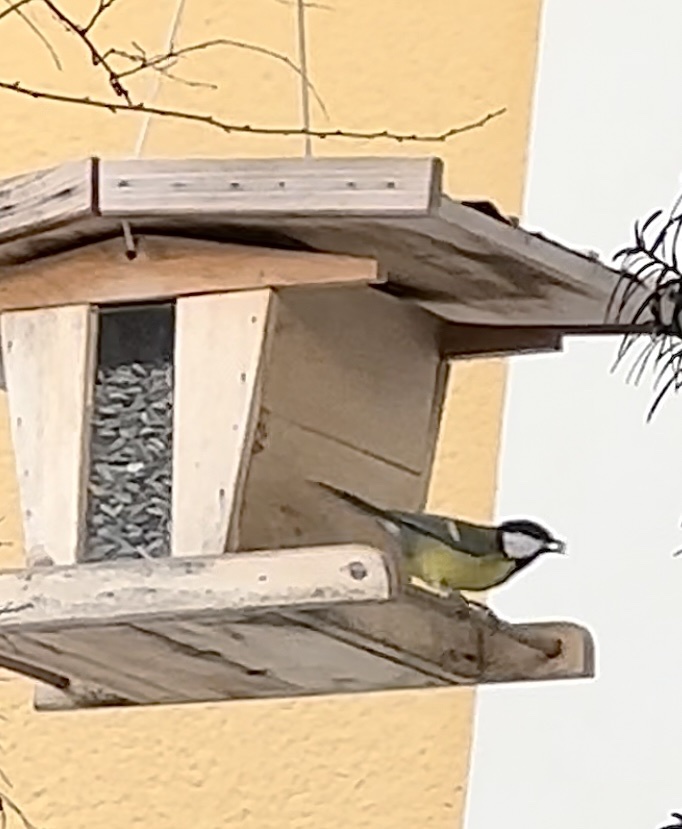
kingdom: Animalia
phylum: Chordata
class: Aves
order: Passeriformes
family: Paridae
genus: Parus
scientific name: Parus major
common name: Great tit
